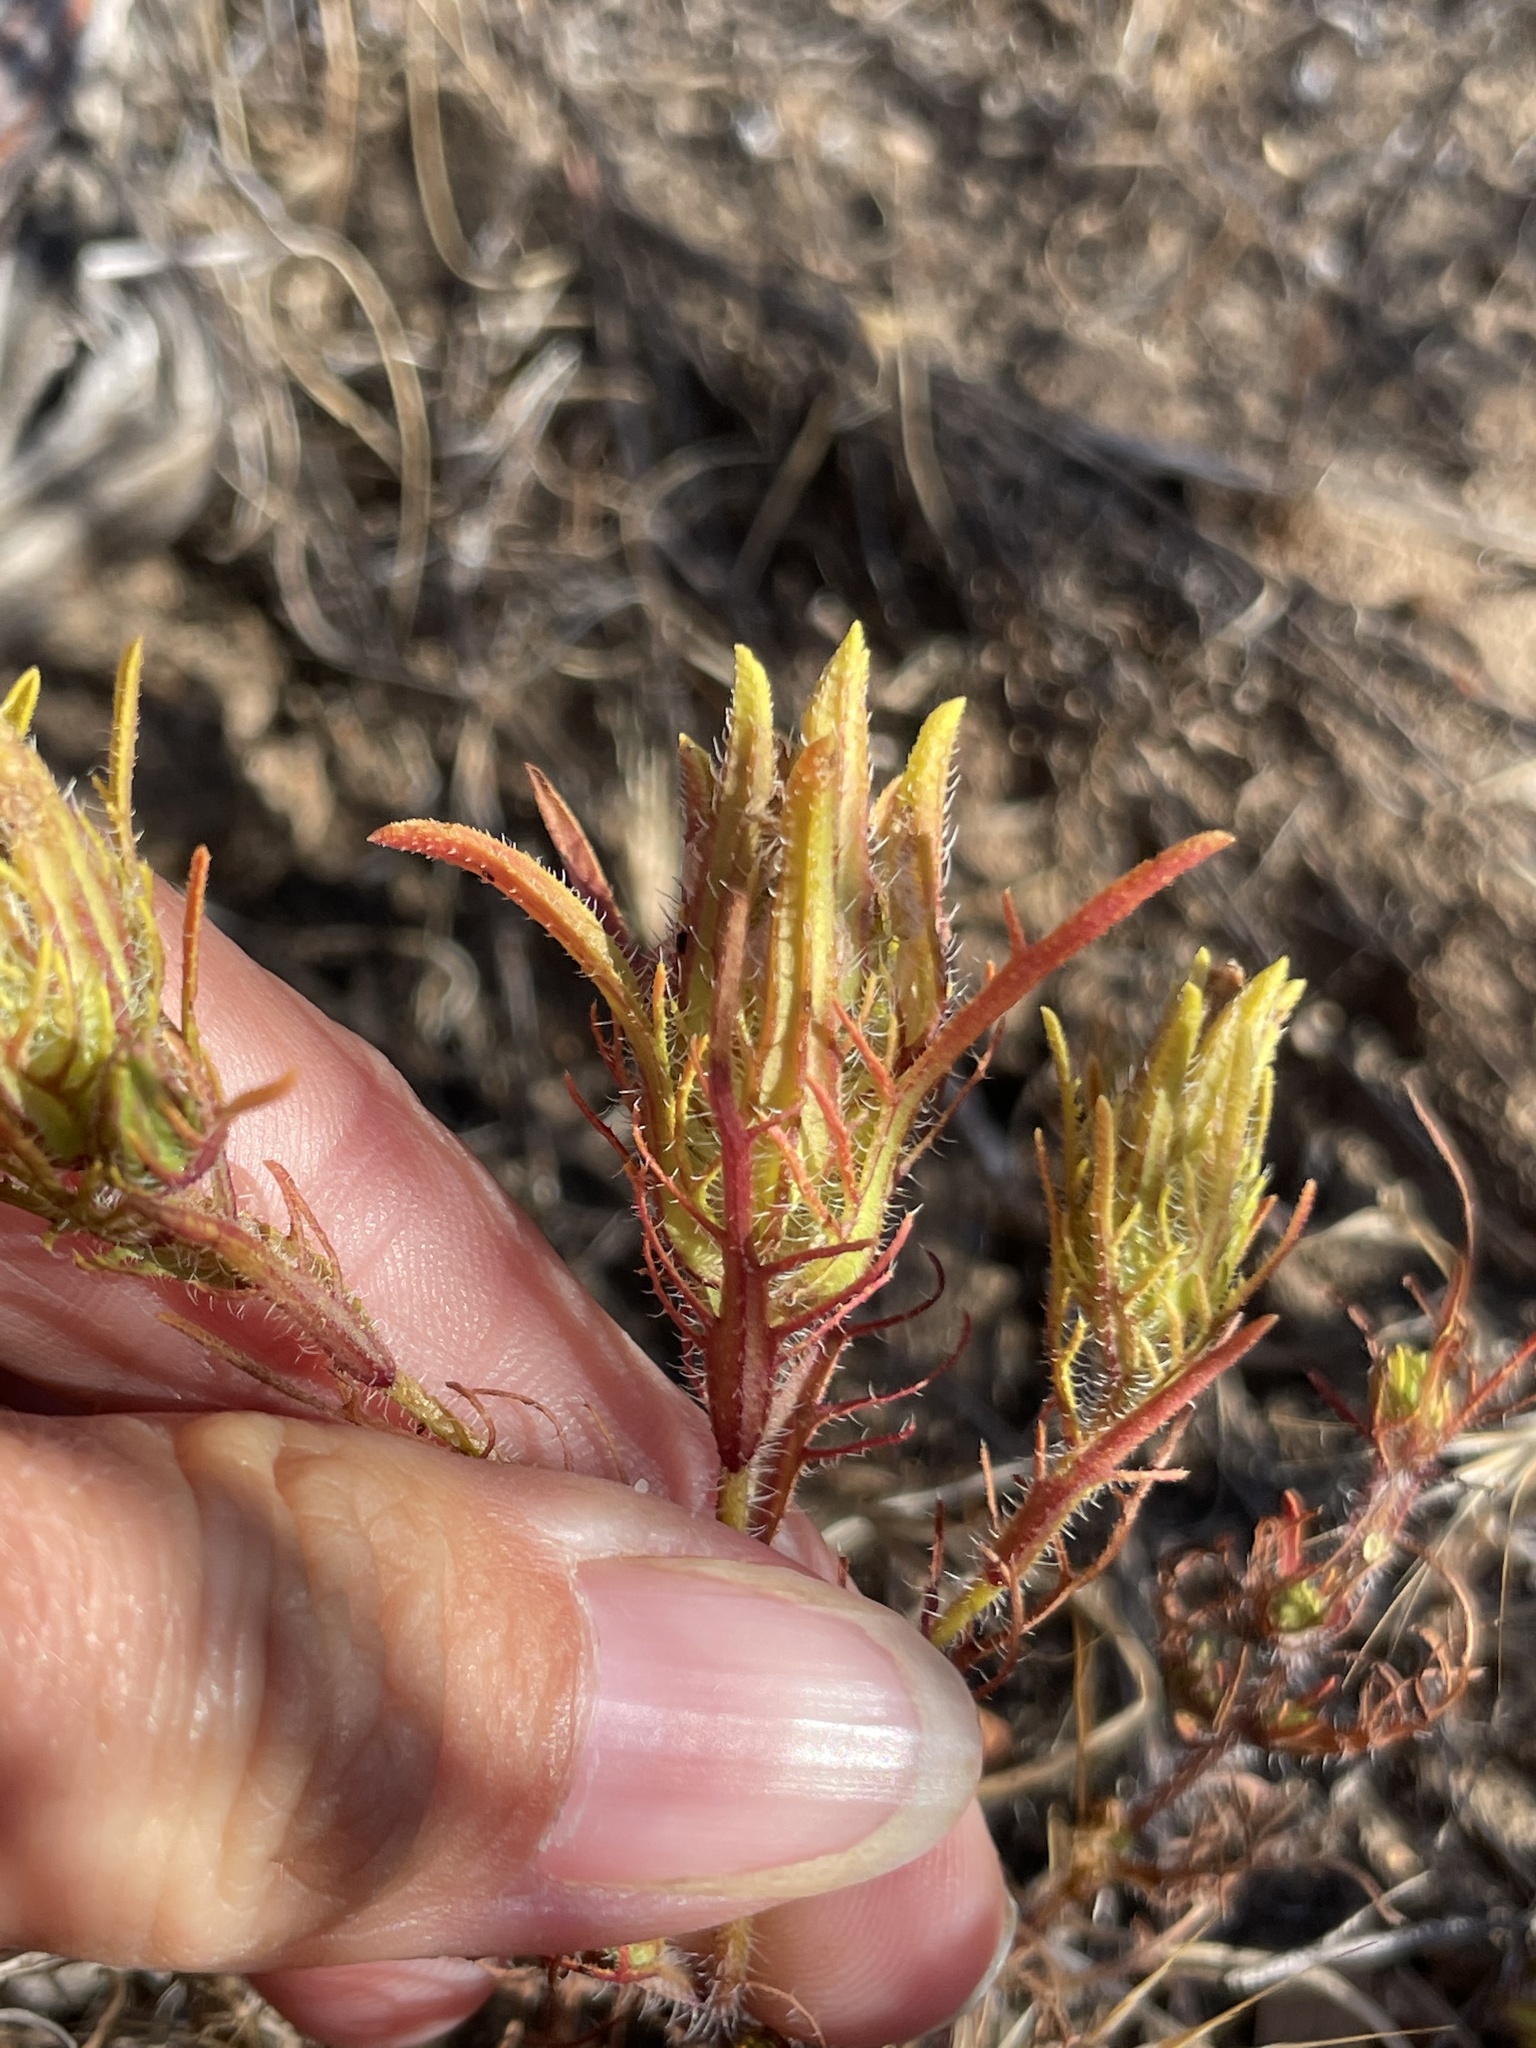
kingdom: Plantae
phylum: Tracheophyta
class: Magnoliopsida
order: Lamiales
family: Orobanchaceae
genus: Dicranostegia
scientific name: Dicranostegia orcuttiana
